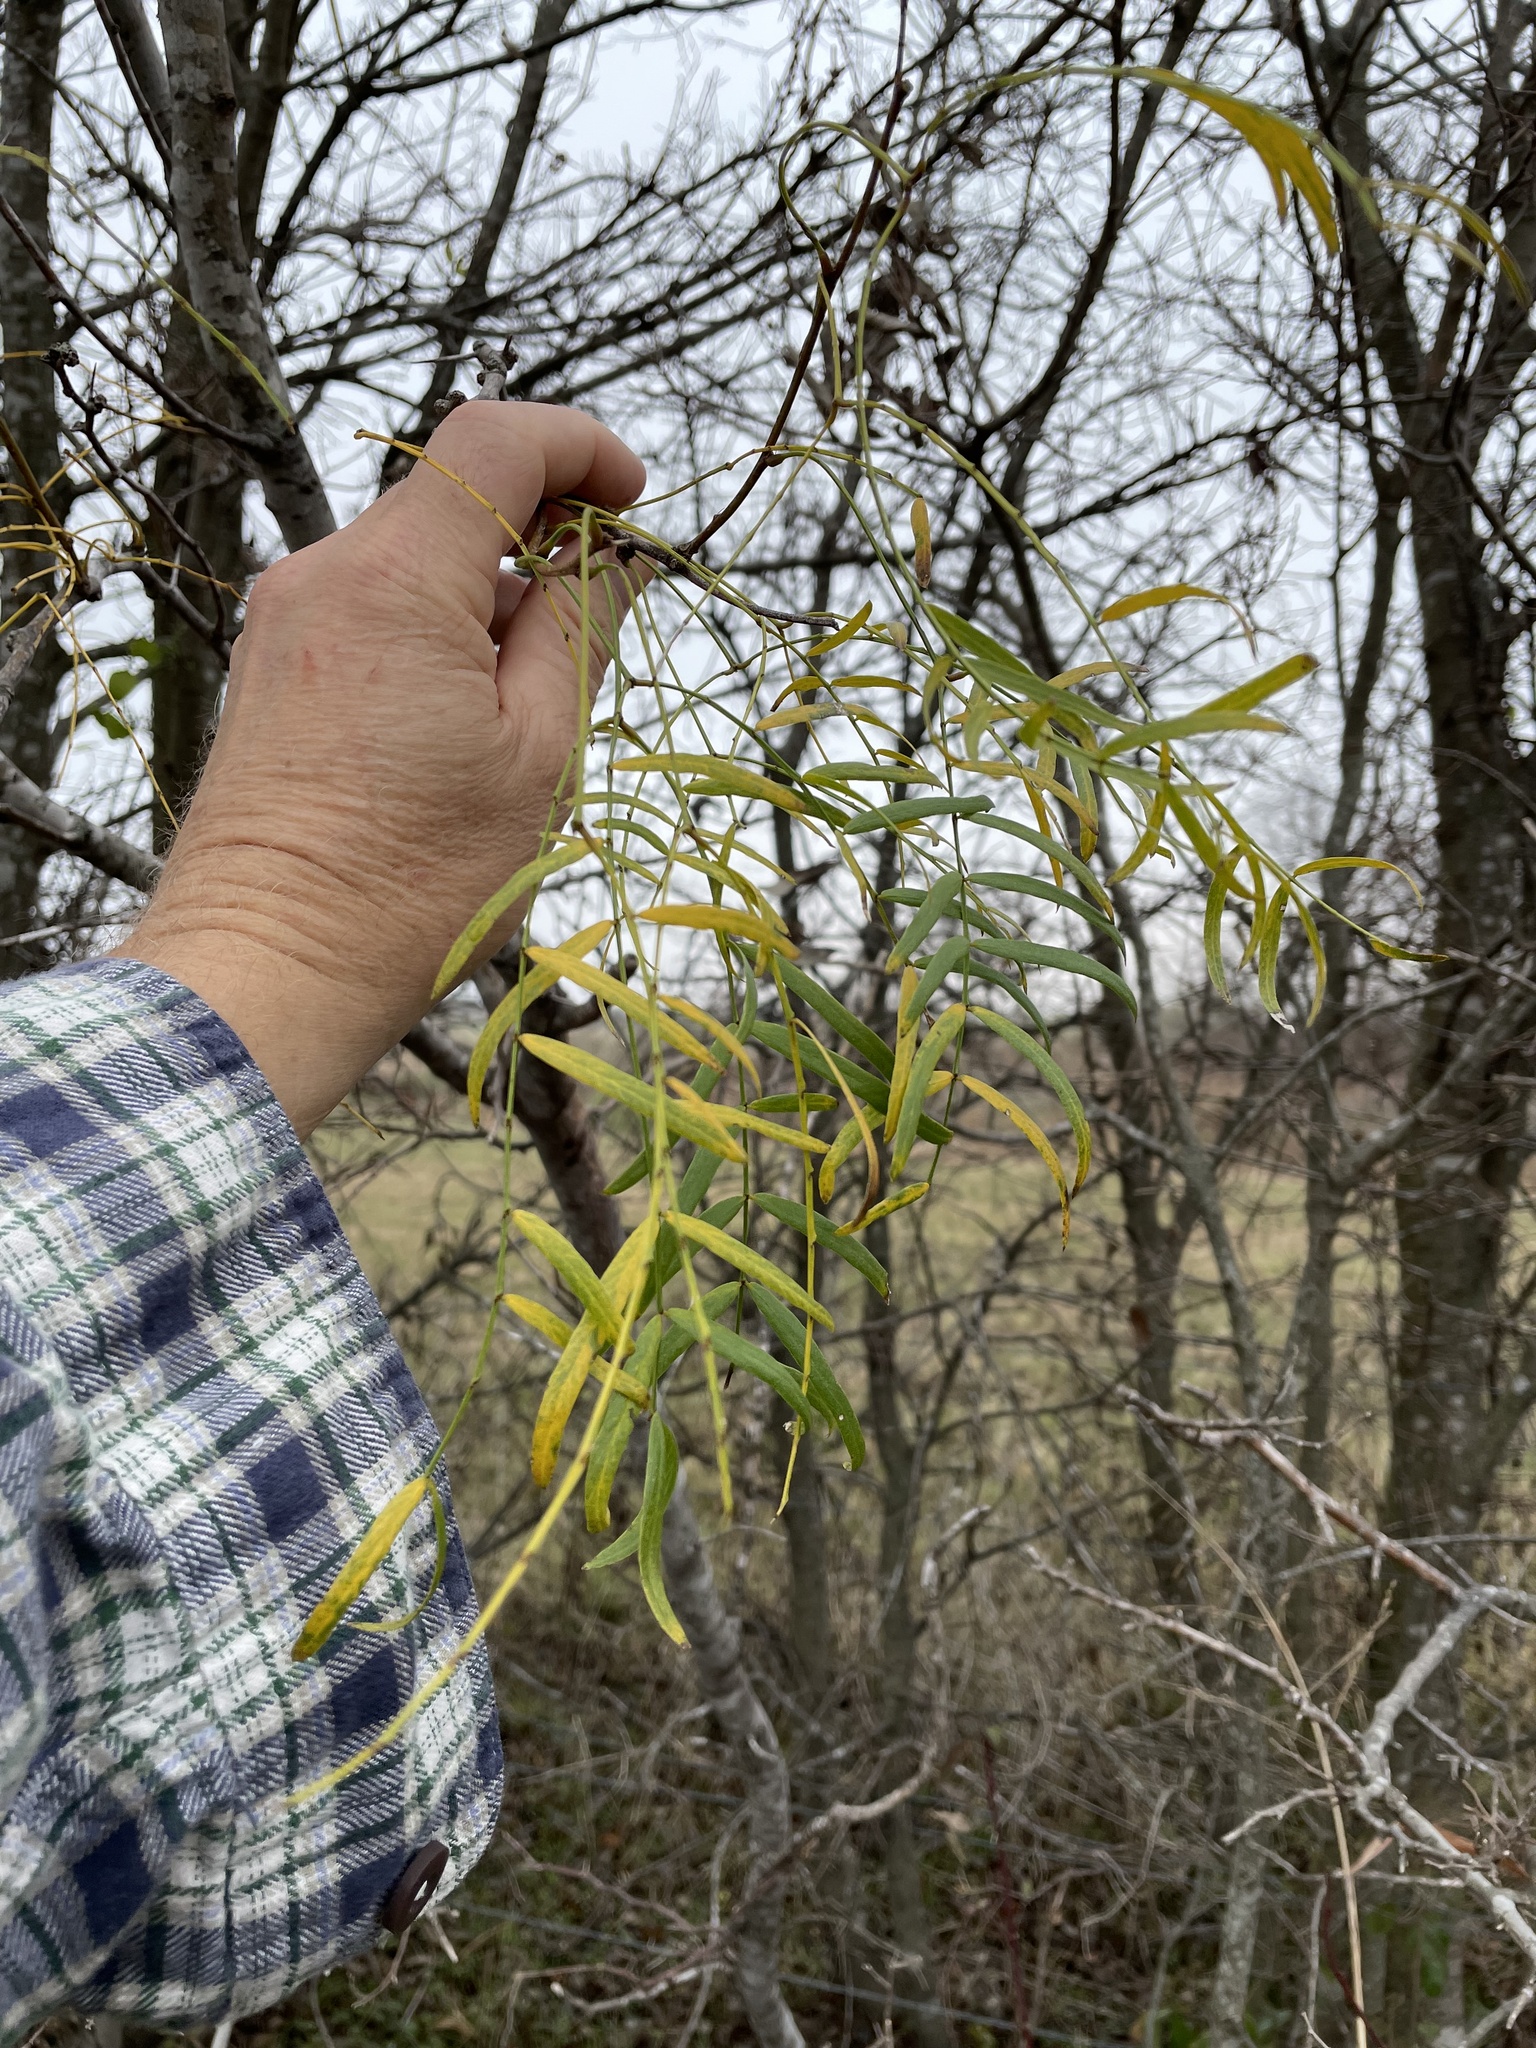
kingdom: Plantae
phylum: Tracheophyta
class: Magnoliopsida
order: Fabales
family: Fabaceae
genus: Prosopis
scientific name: Prosopis glandulosa
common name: Honey mesquite
